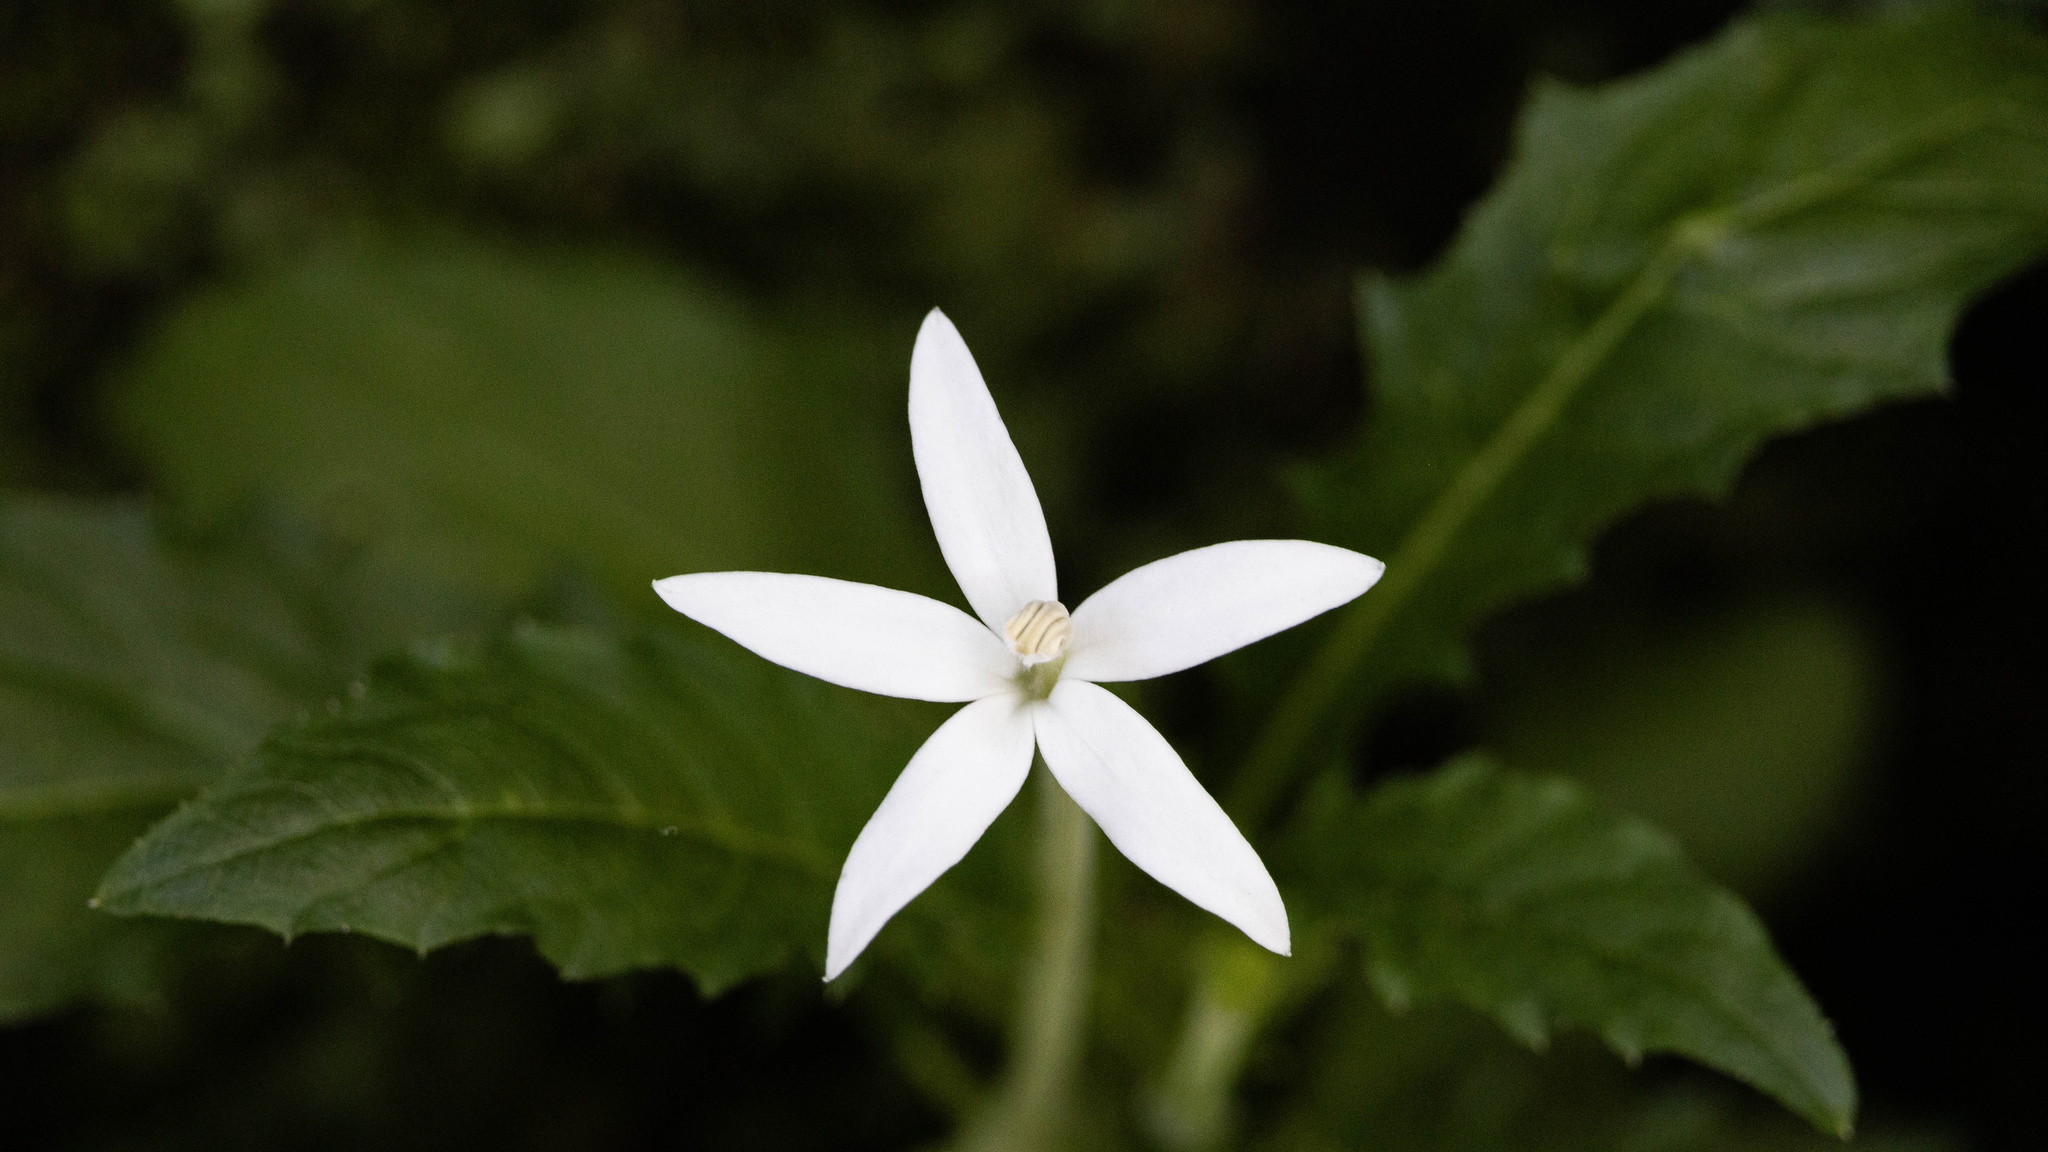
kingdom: Plantae
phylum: Tracheophyta
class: Magnoliopsida
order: Asterales
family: Campanulaceae
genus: Hippobroma
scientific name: Hippobroma longiflora
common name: Madamfate
